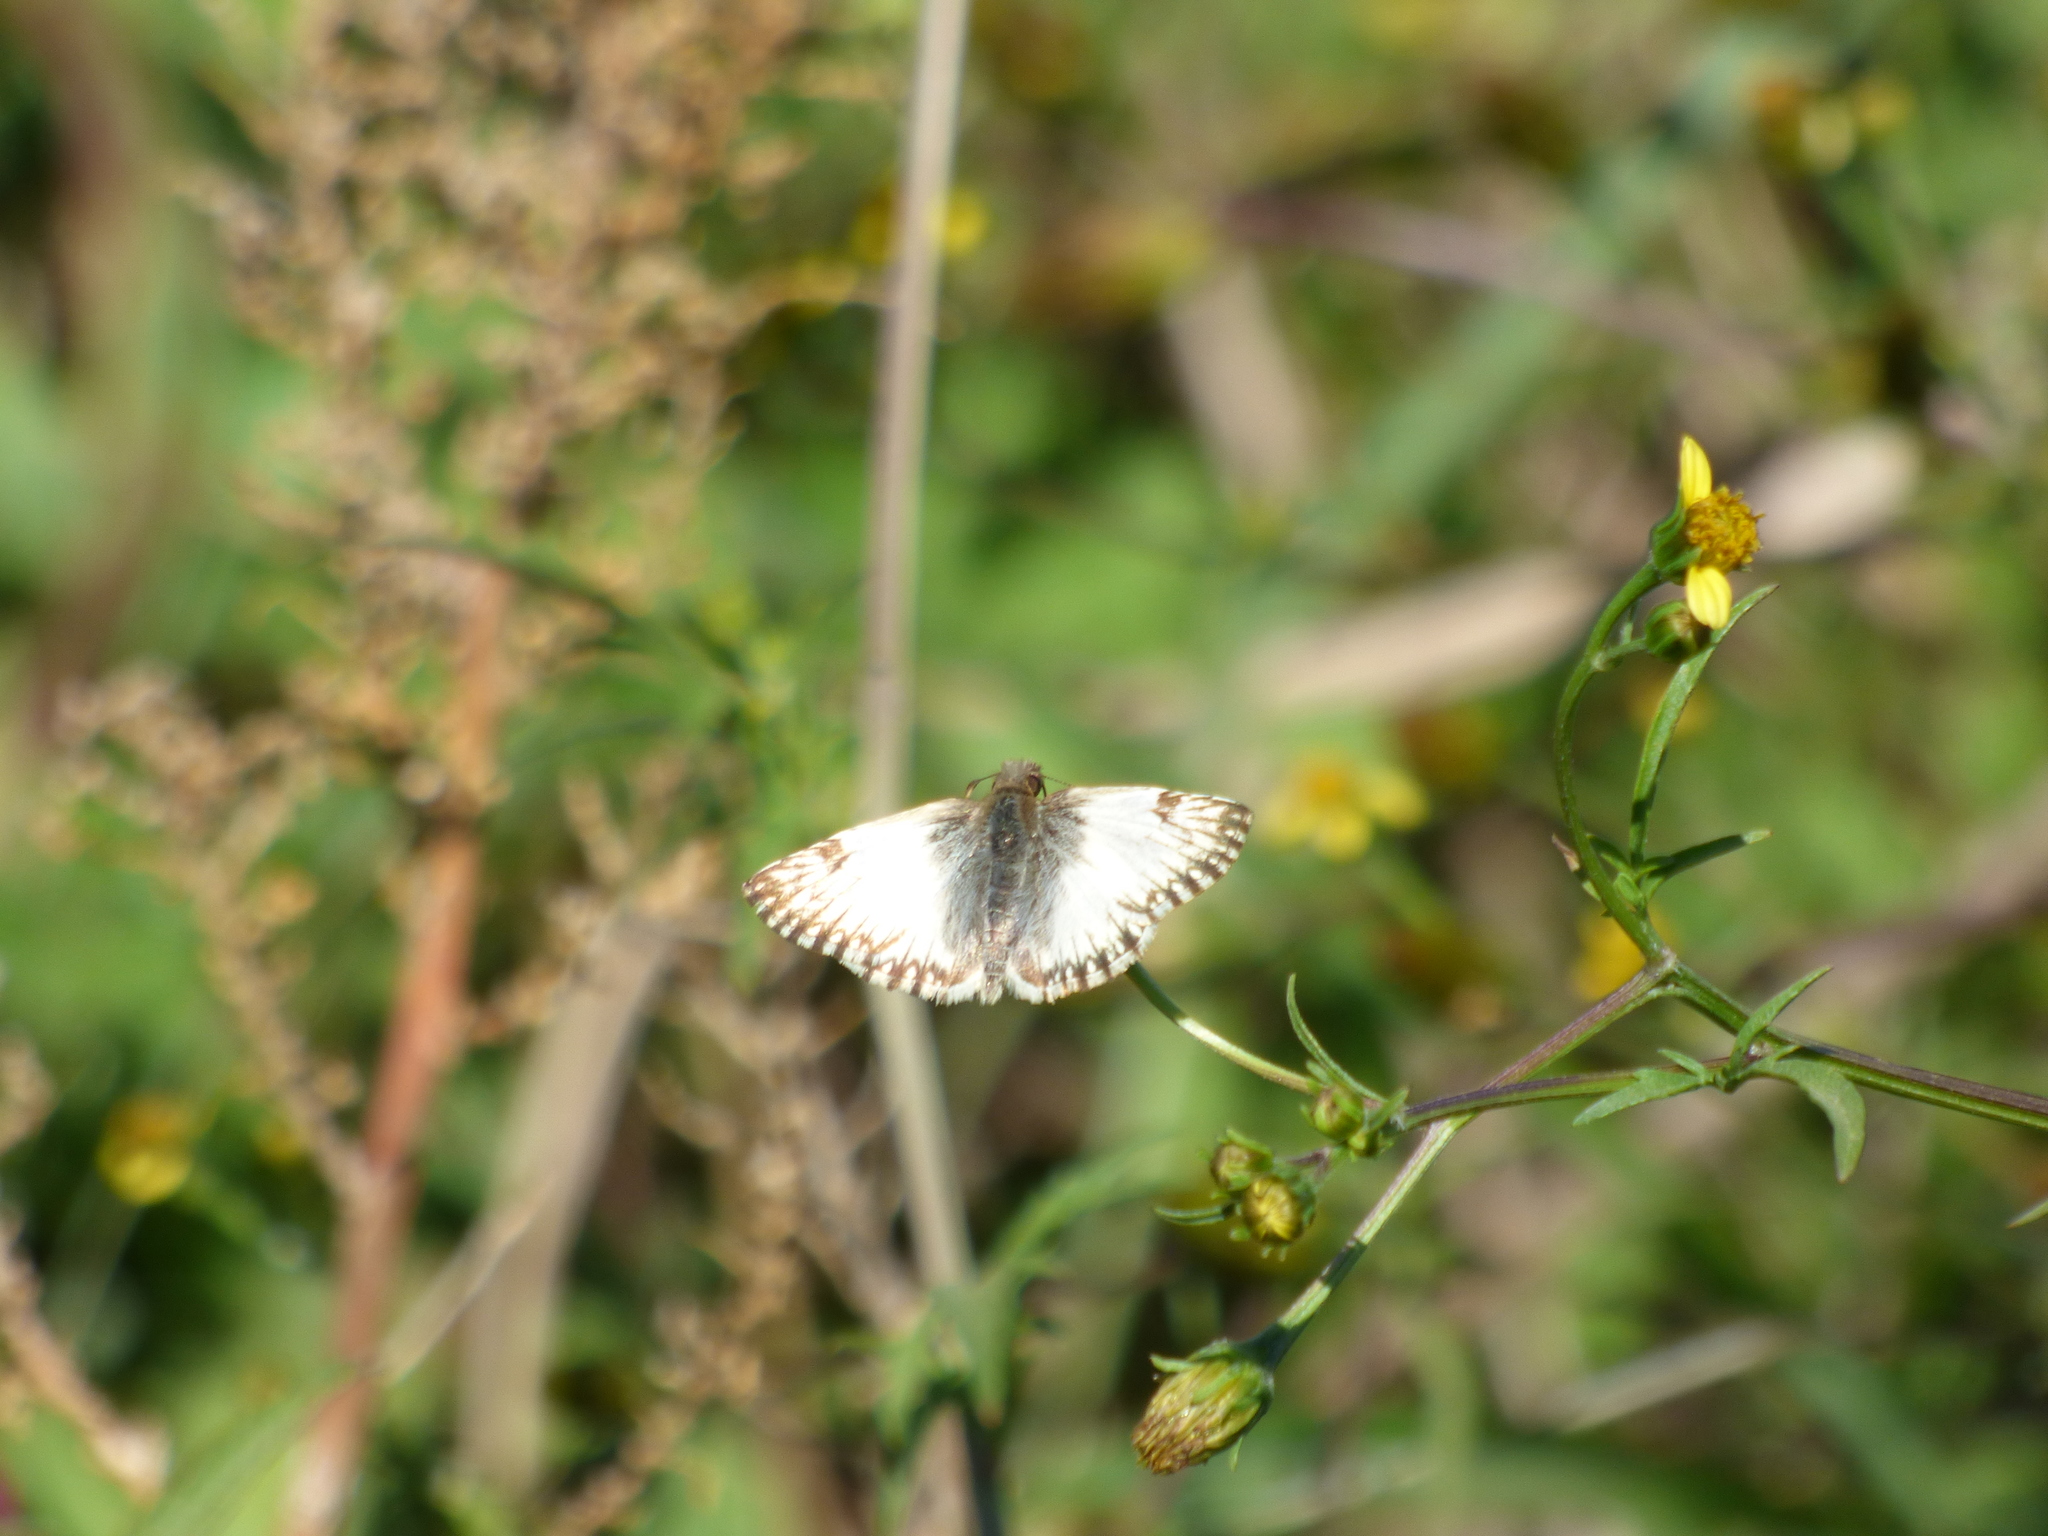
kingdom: Animalia
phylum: Arthropoda
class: Insecta
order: Lepidoptera
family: Hesperiidae
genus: Heliopetes
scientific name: Heliopetes omrina
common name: Stained white-skipper
